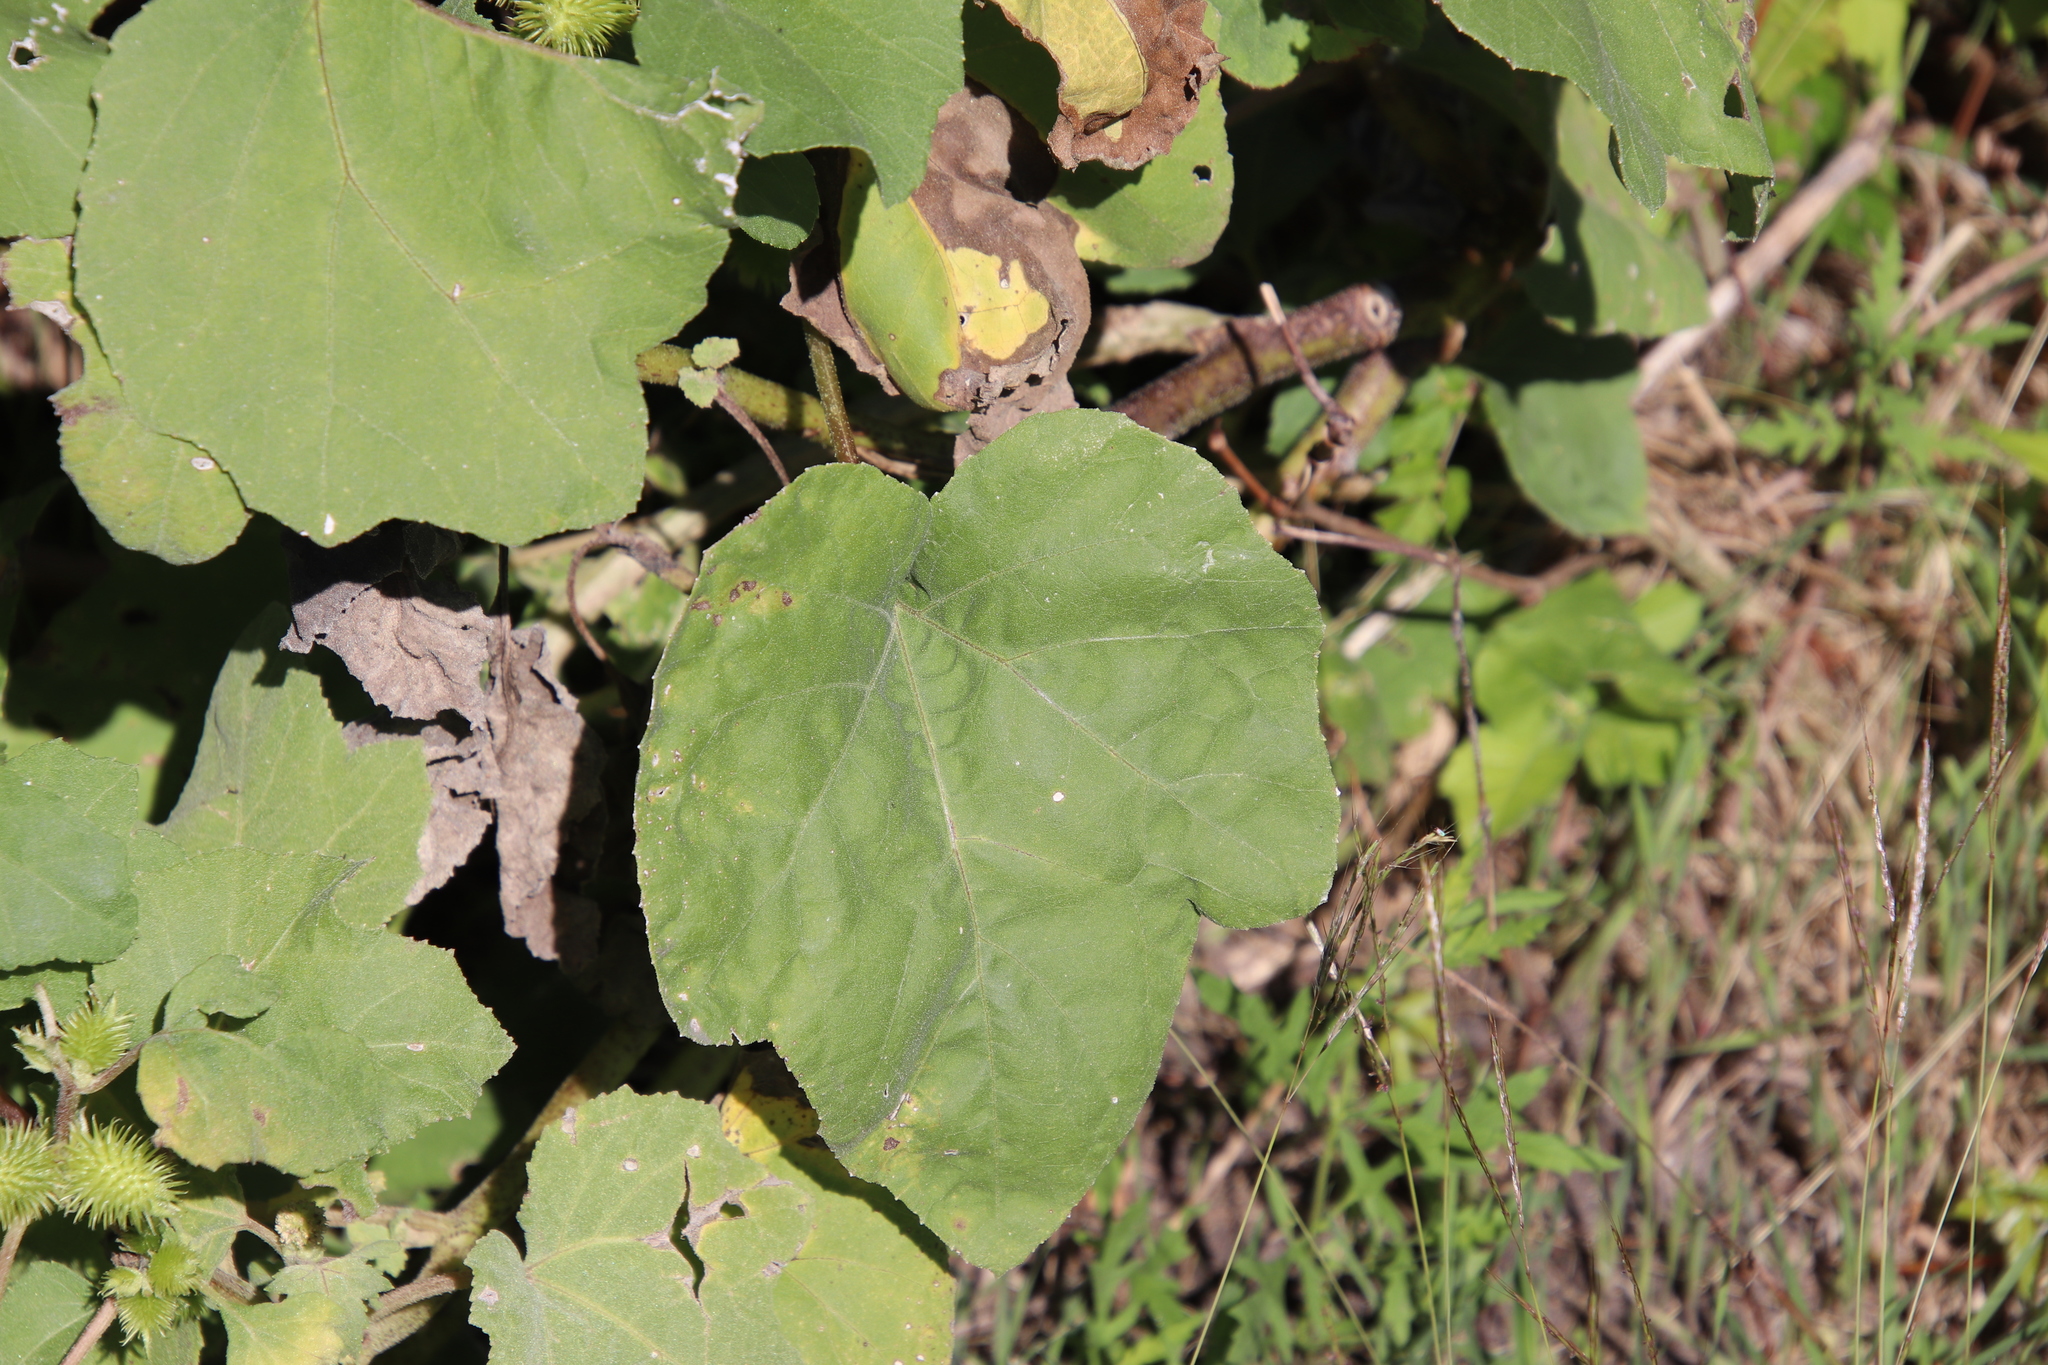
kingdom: Plantae
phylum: Tracheophyta
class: Magnoliopsida
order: Asterales
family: Asteraceae
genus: Xanthium
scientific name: Xanthium strumarium
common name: Rough cocklebur
